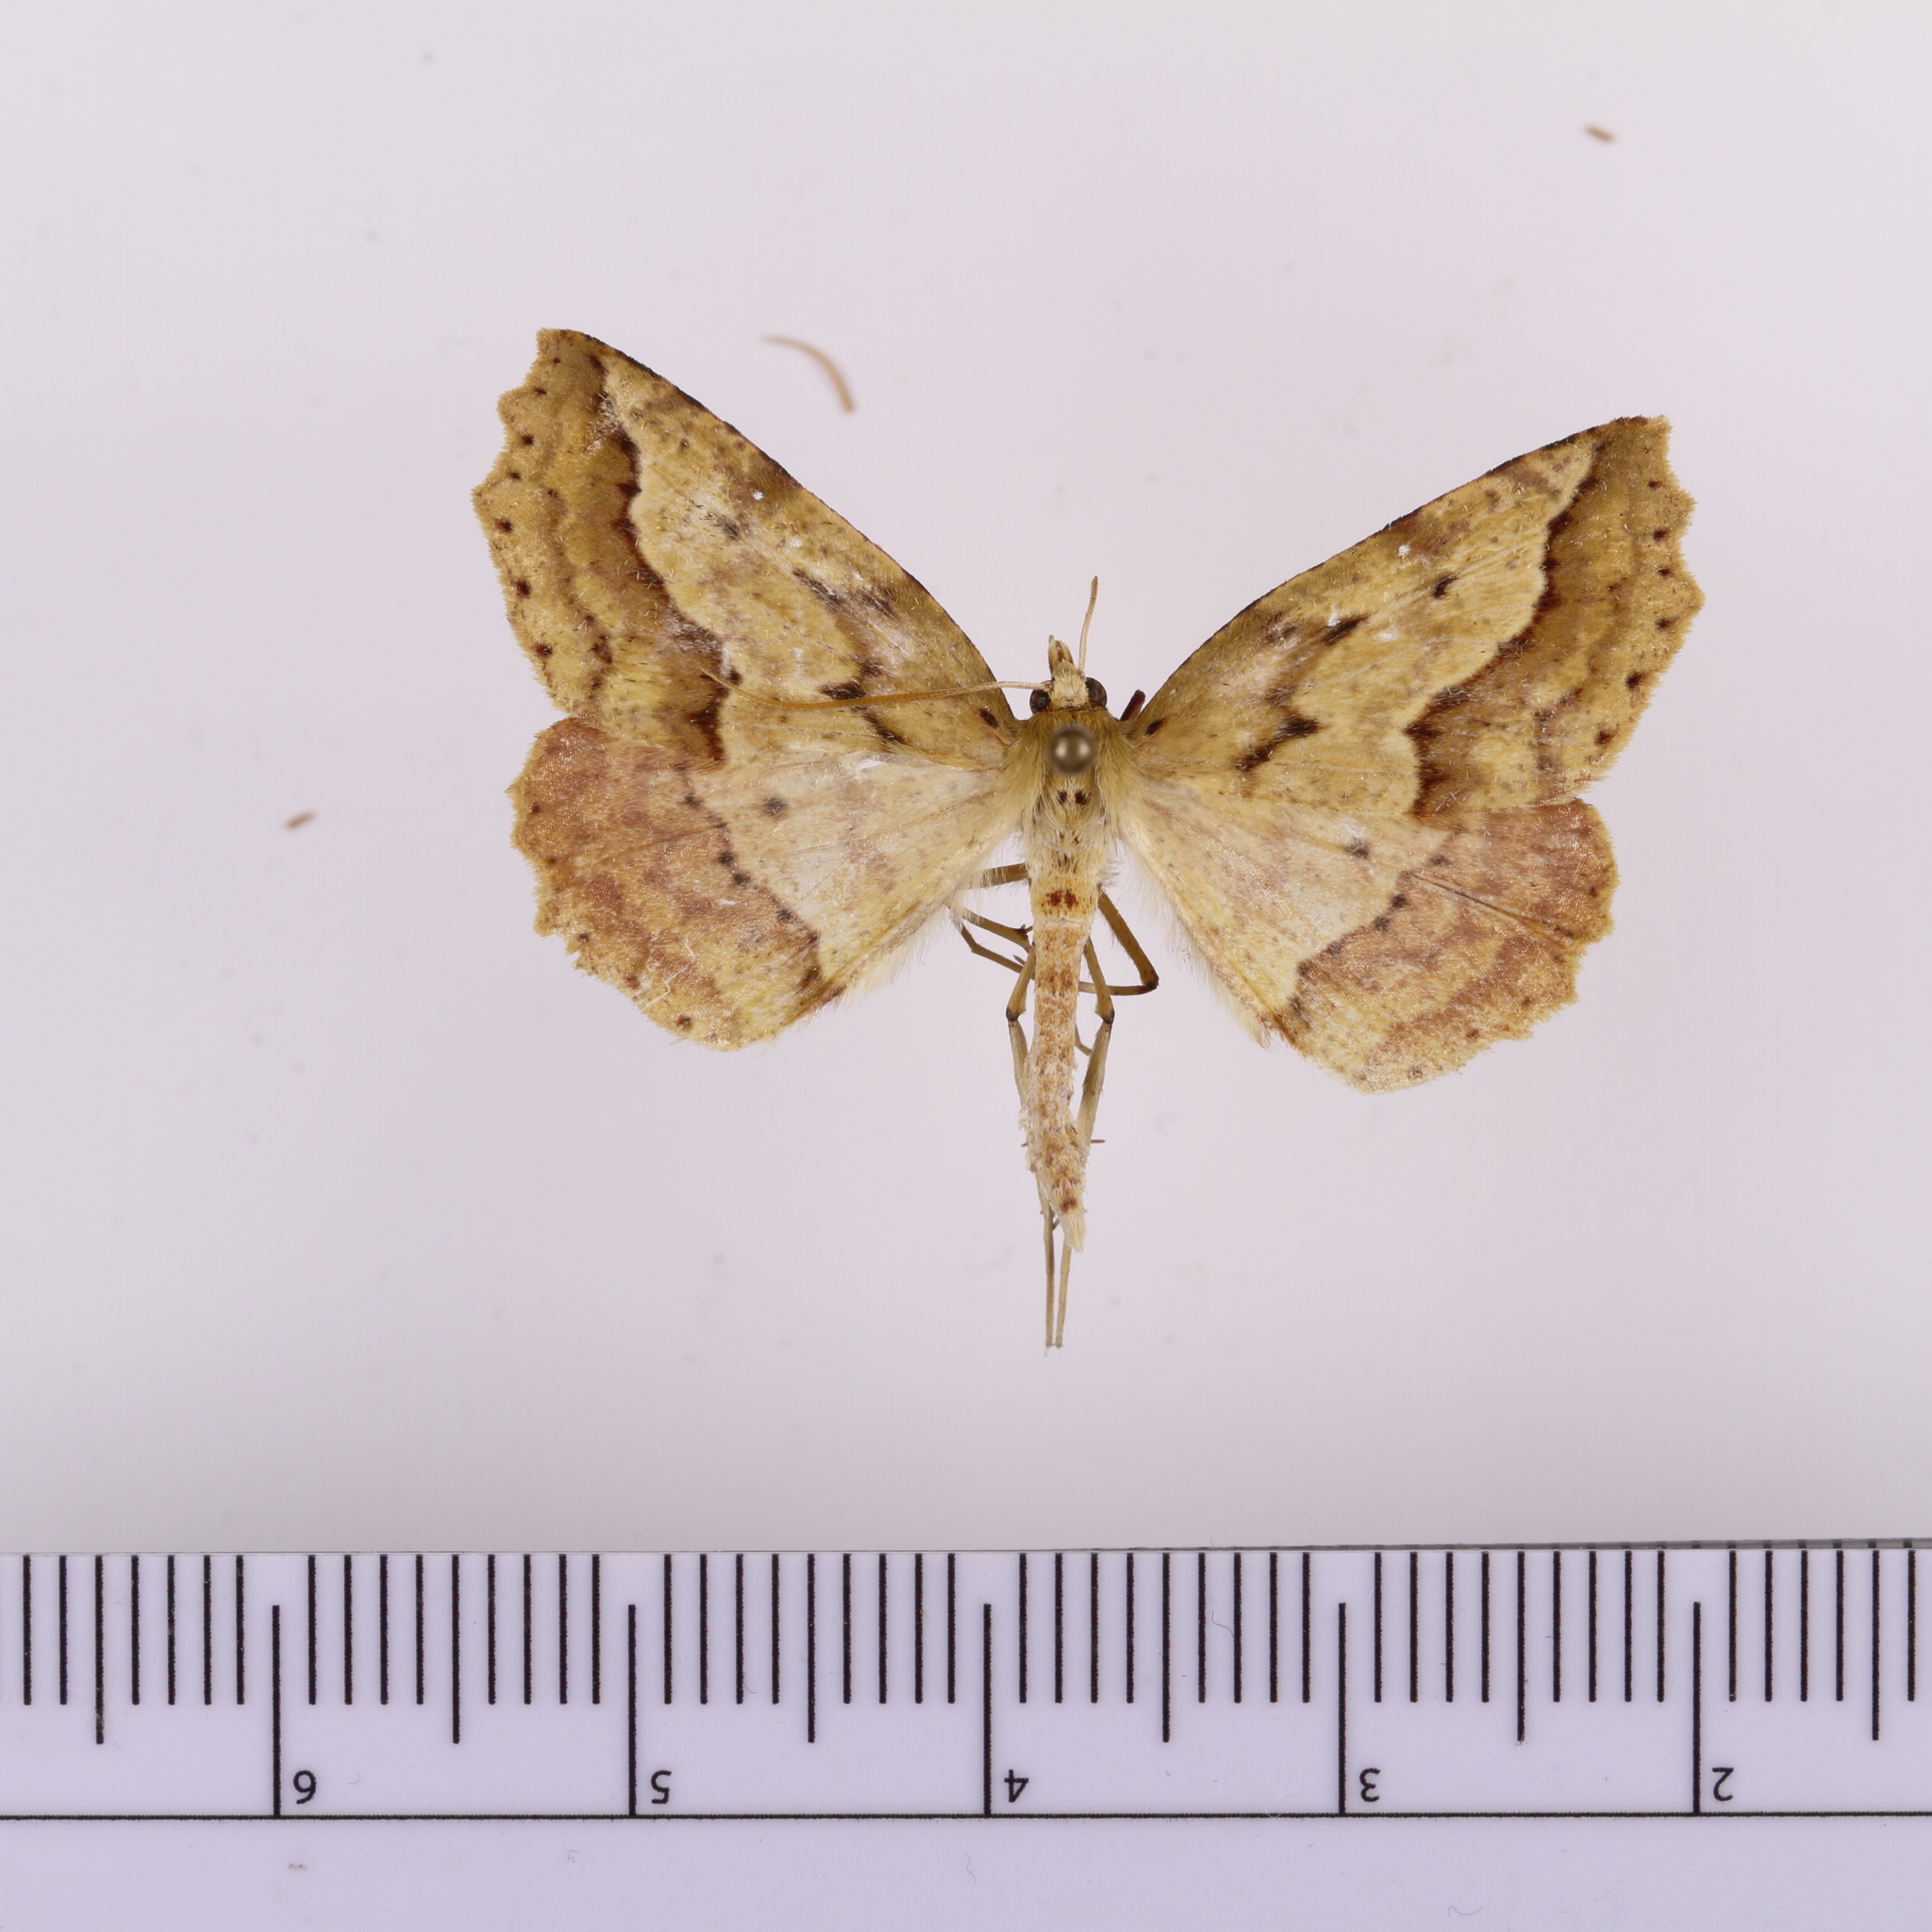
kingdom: Animalia
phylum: Arthropoda
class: Insecta
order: Lepidoptera
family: Geometridae
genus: Ischalis
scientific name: Ischalis variabilis
